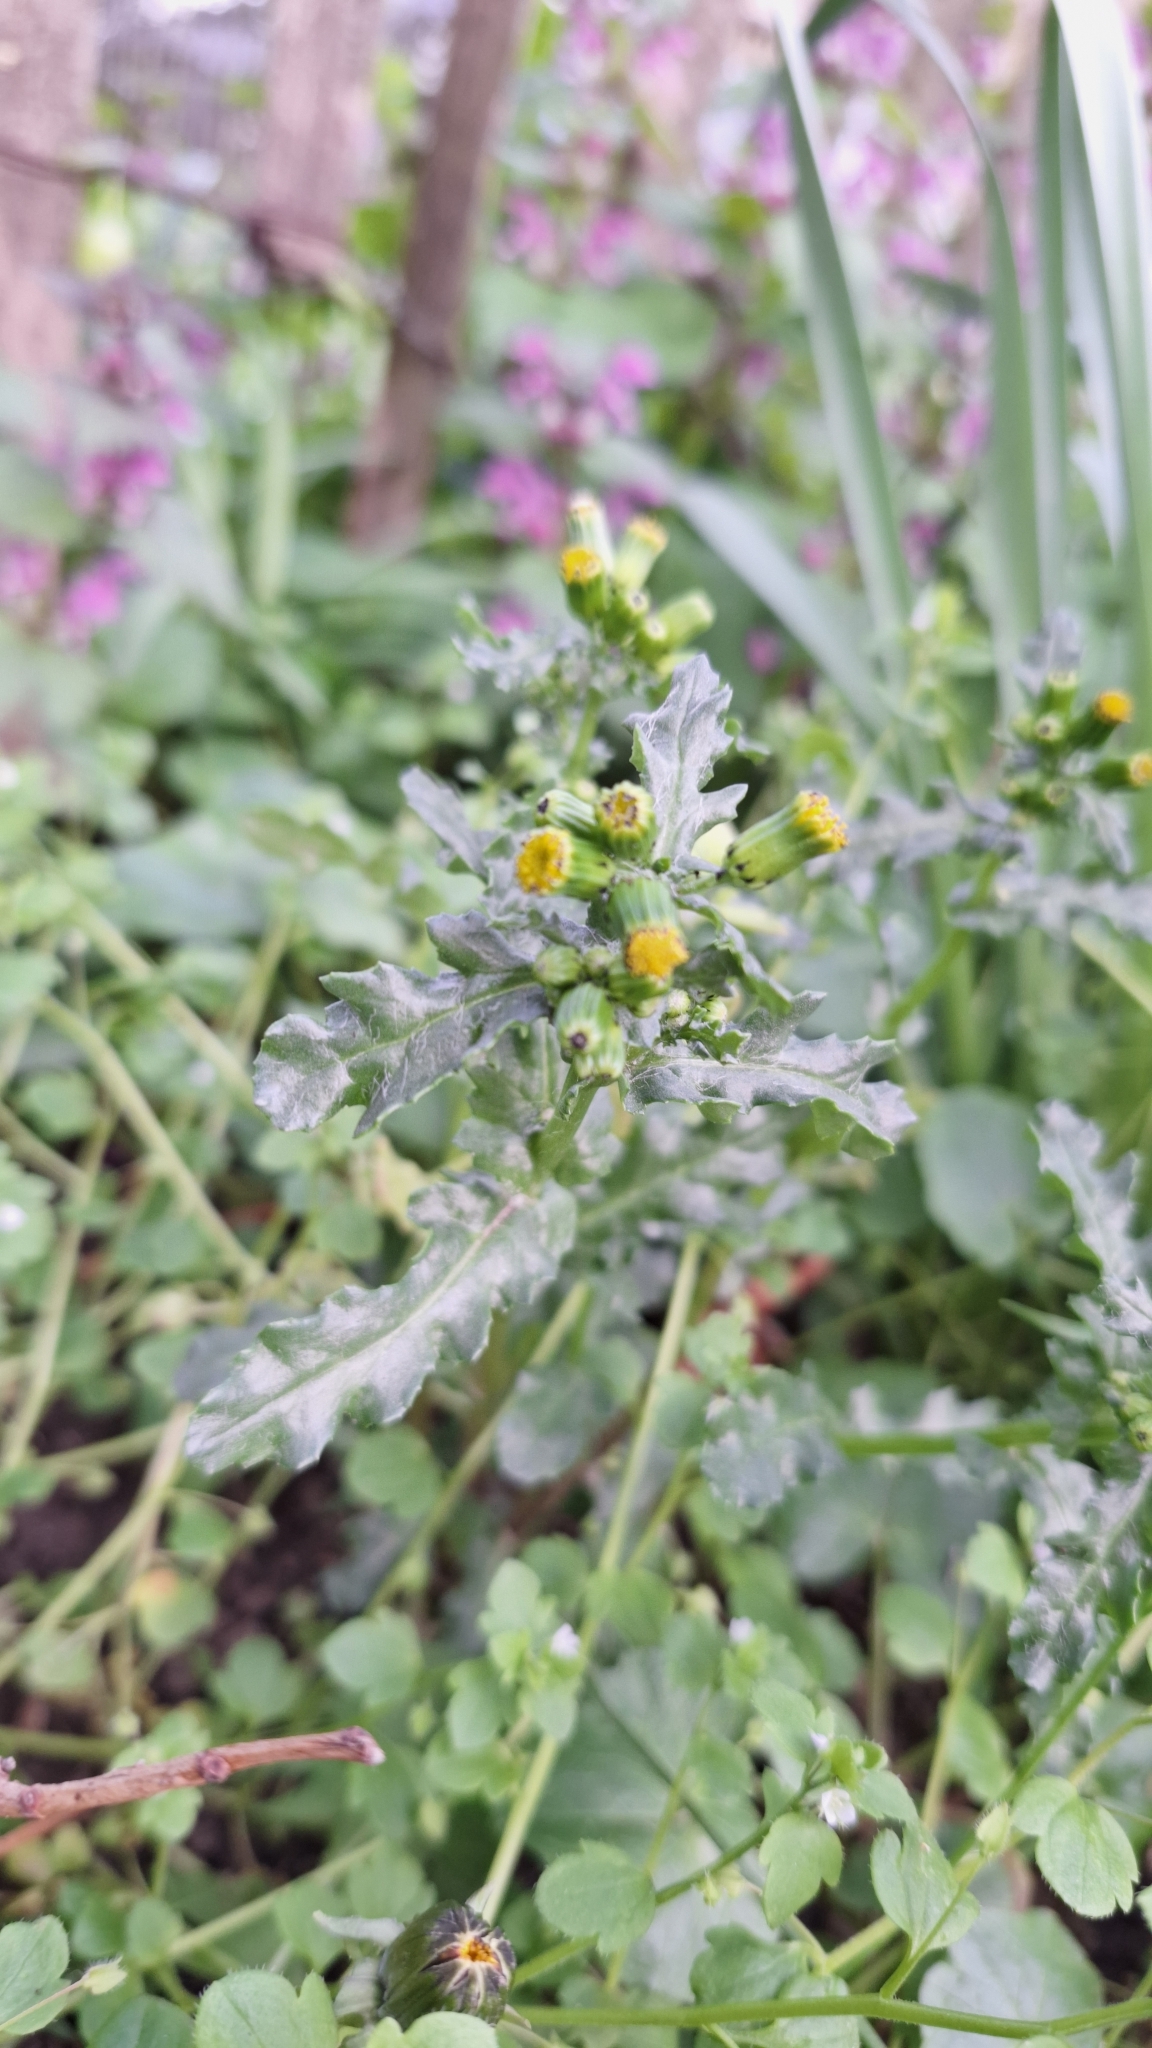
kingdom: Plantae
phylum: Tracheophyta
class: Magnoliopsida
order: Asterales
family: Asteraceae
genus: Senecio
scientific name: Senecio vulgaris
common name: Old-man-in-the-spring
